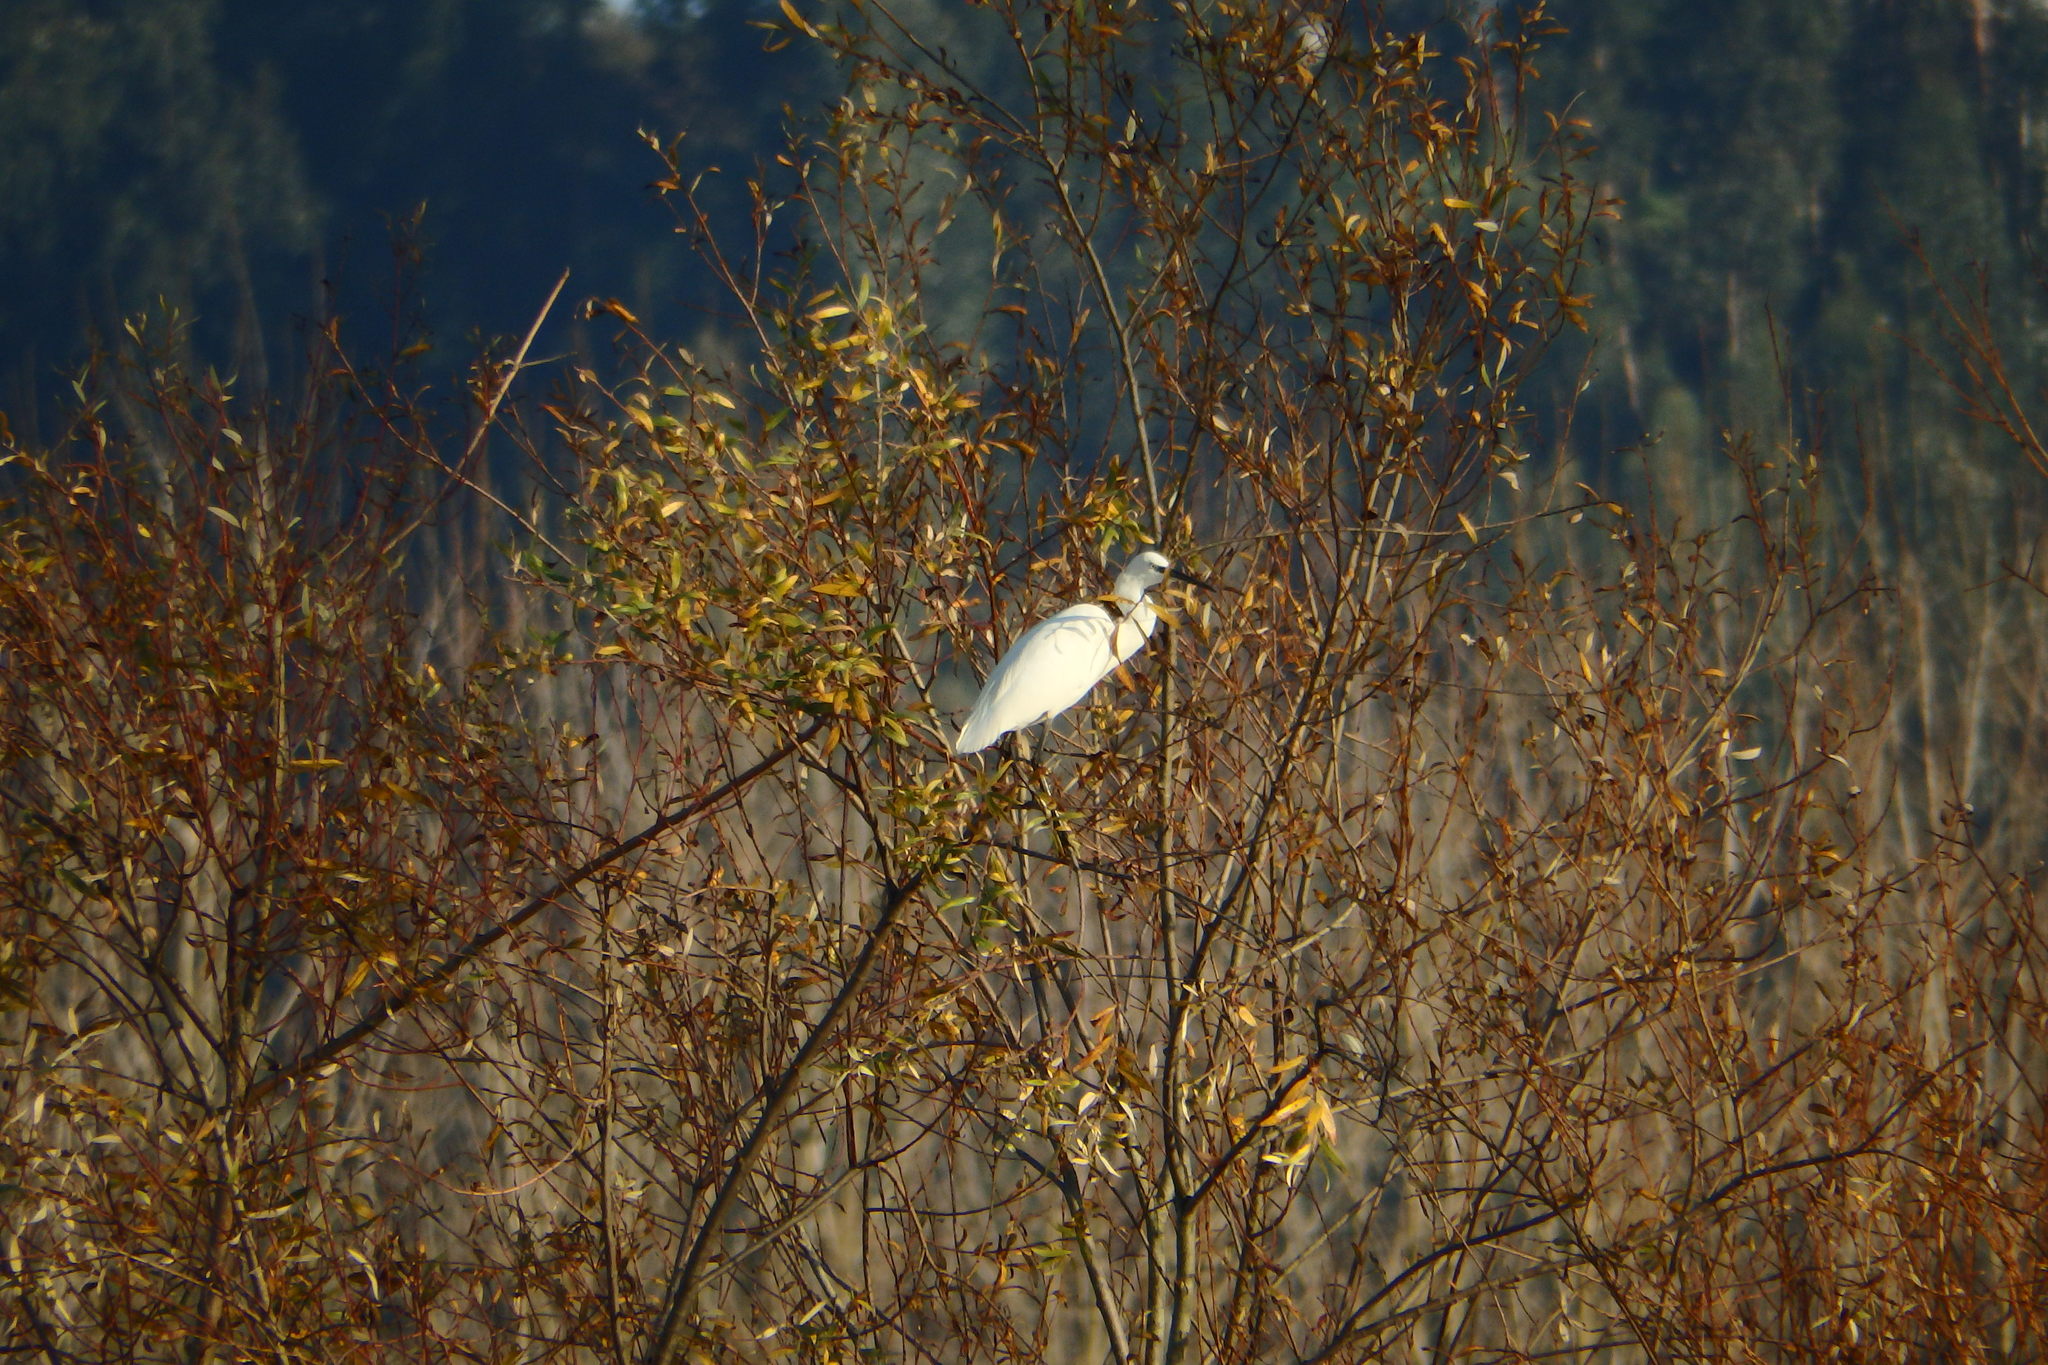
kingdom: Animalia
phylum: Chordata
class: Aves
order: Pelecaniformes
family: Ardeidae
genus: Egretta
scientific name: Egretta garzetta
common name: Little egret
